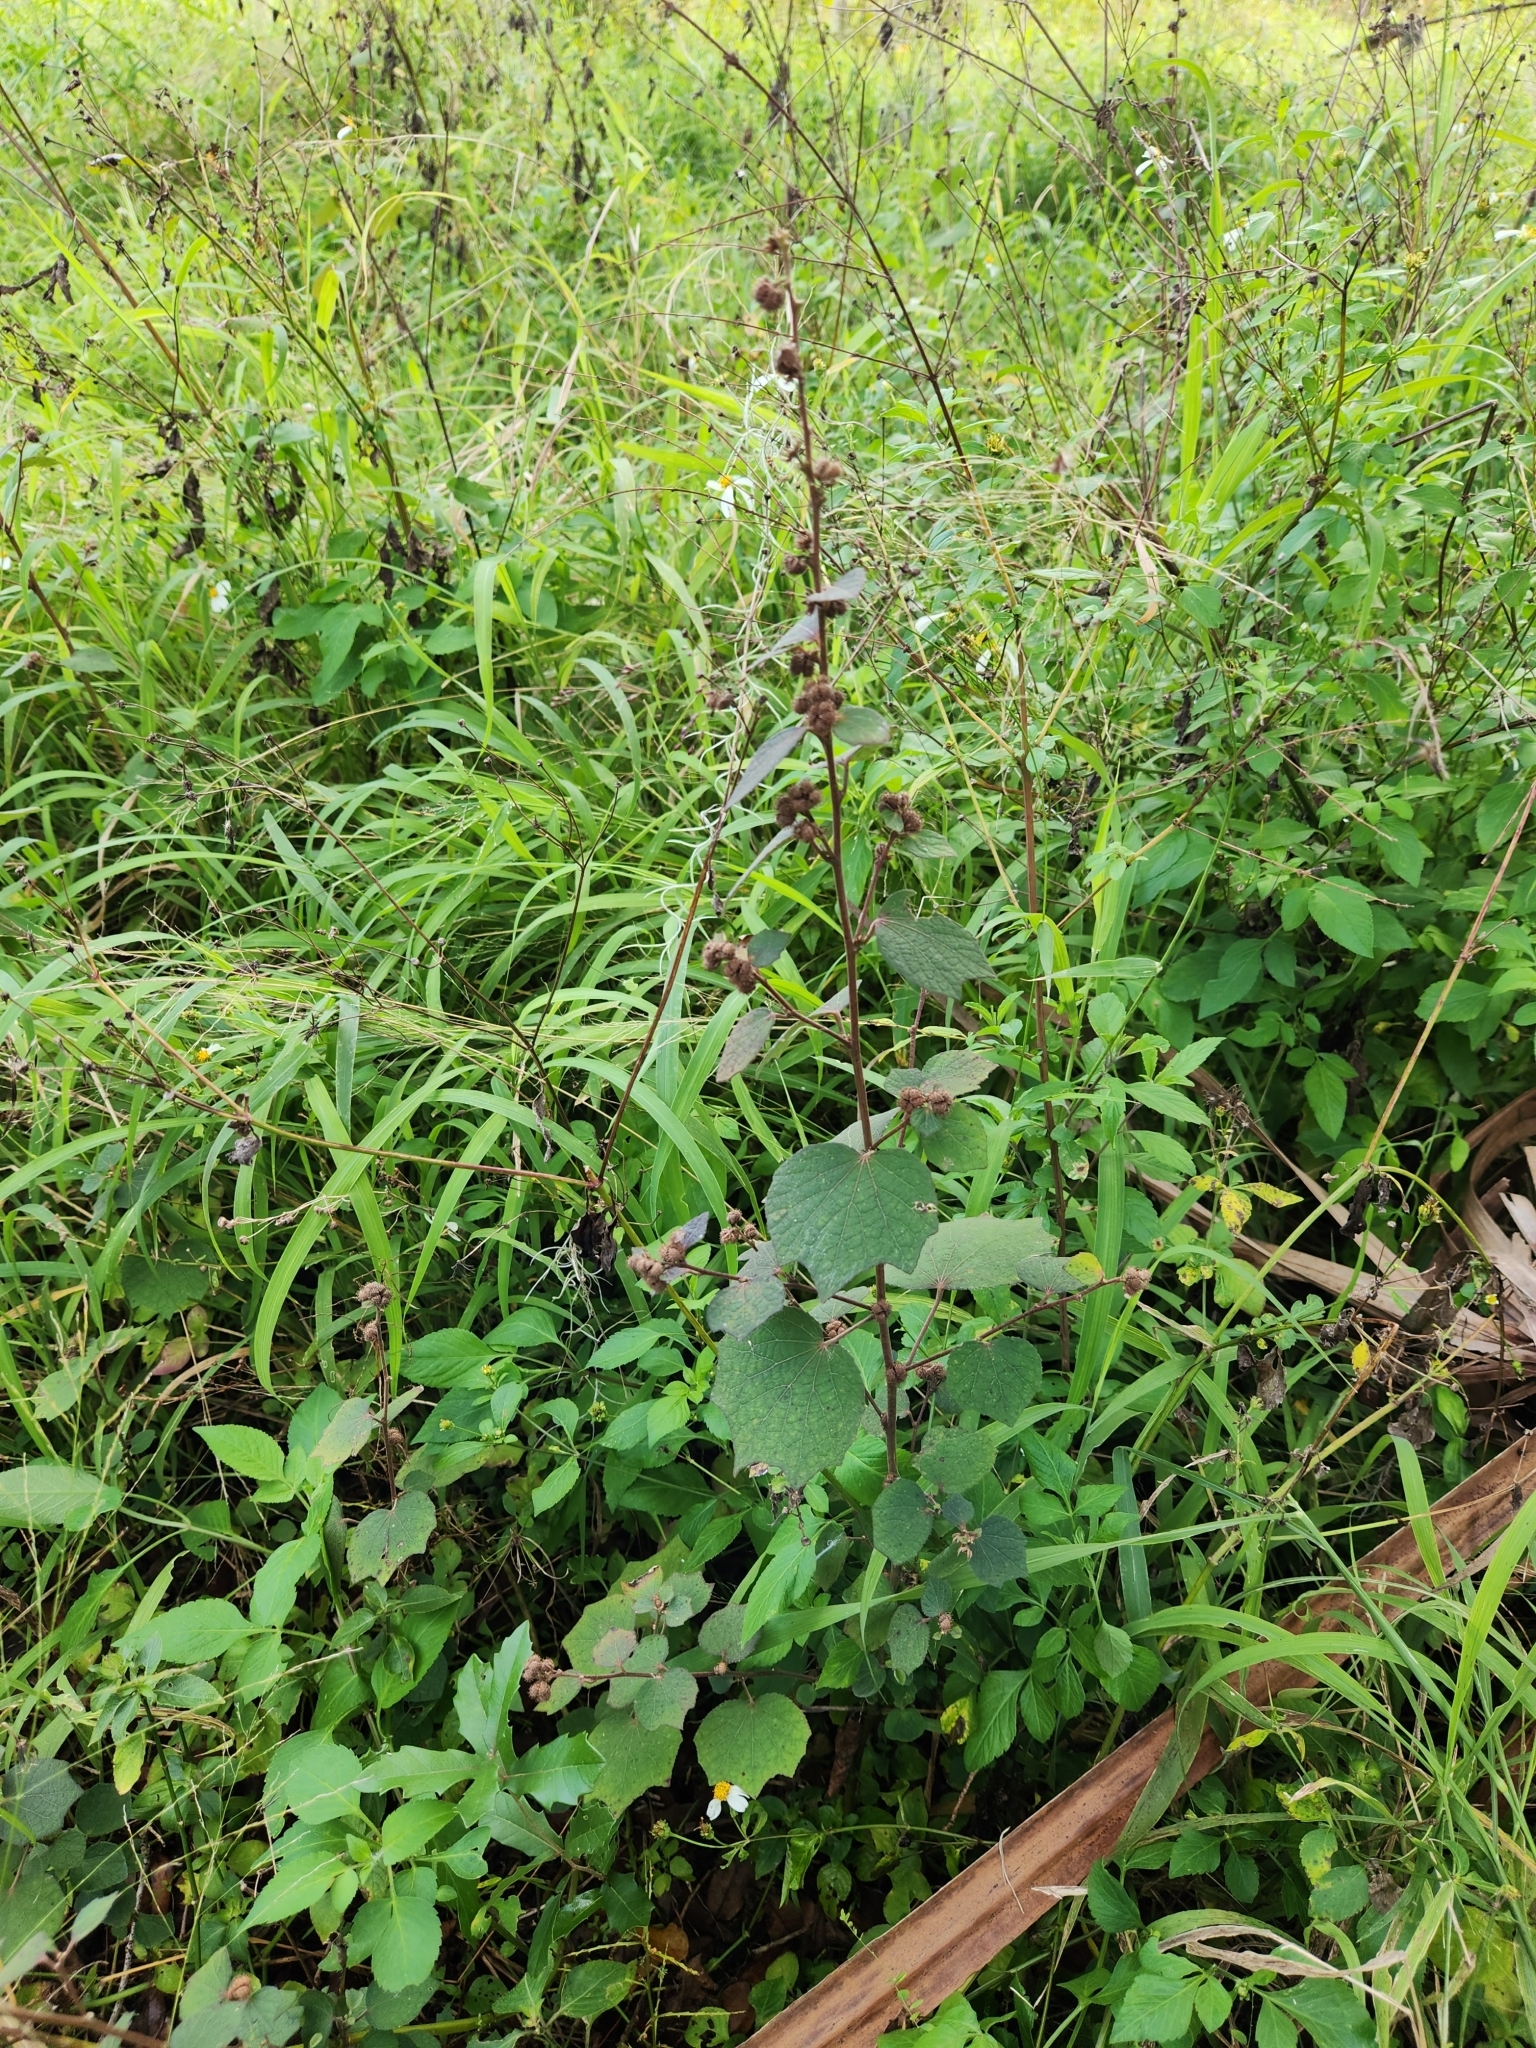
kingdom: Plantae
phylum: Tracheophyta
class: Magnoliopsida
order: Malvales
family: Malvaceae
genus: Urena
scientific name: Urena lobata
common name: Caesarweed
